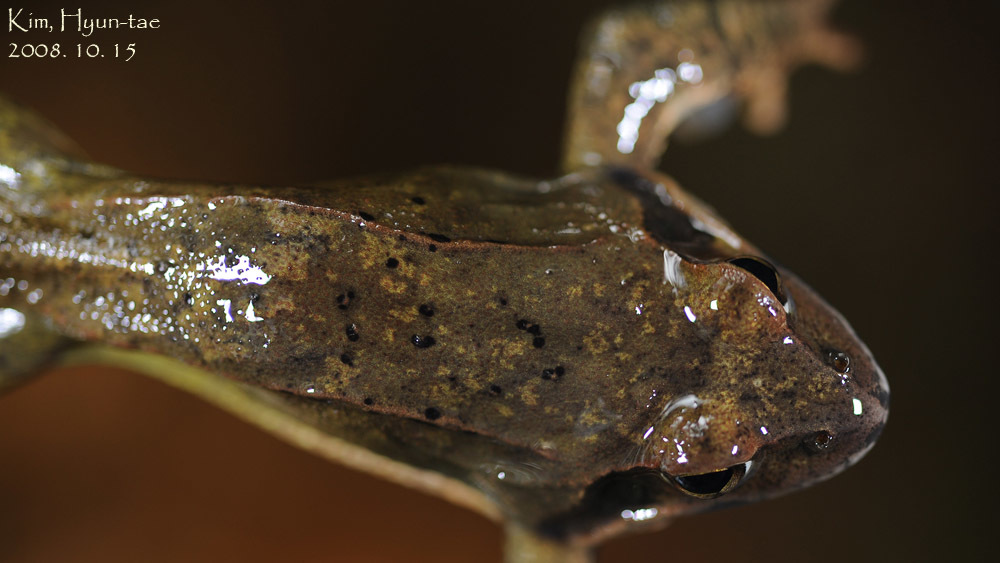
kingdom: Animalia
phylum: Chordata
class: Amphibia
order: Anura
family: Ranidae
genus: Rana
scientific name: Rana uenoi
